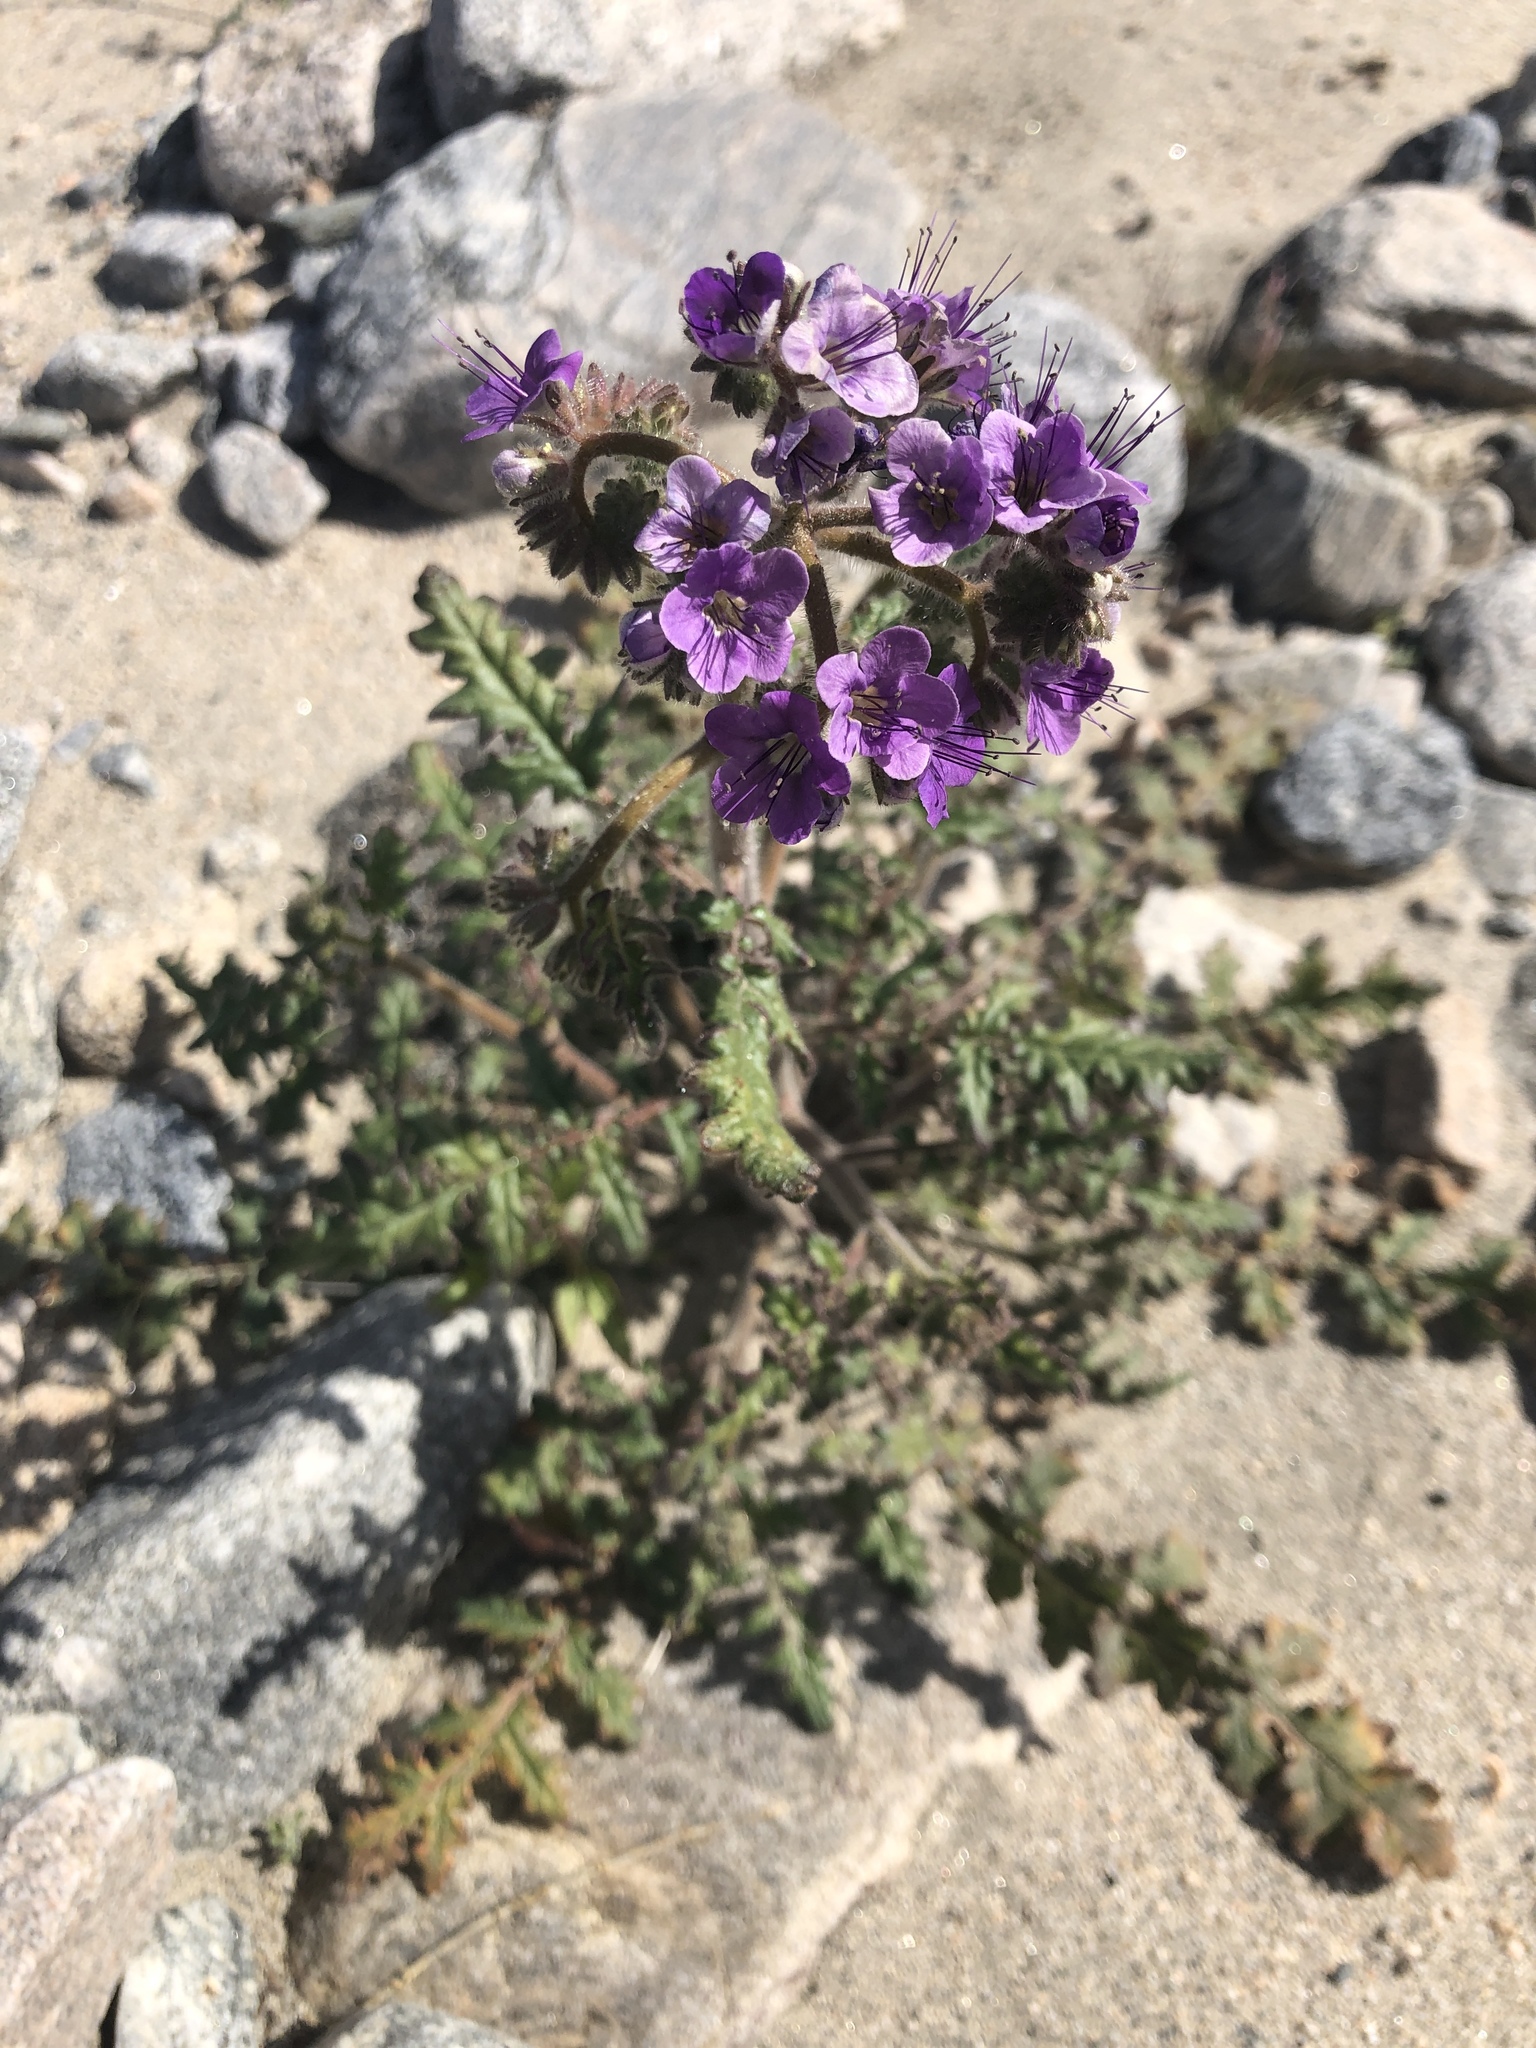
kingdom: Plantae
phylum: Tracheophyta
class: Magnoliopsida
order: Boraginales
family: Hydrophyllaceae
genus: Phacelia
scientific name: Phacelia crenulata
